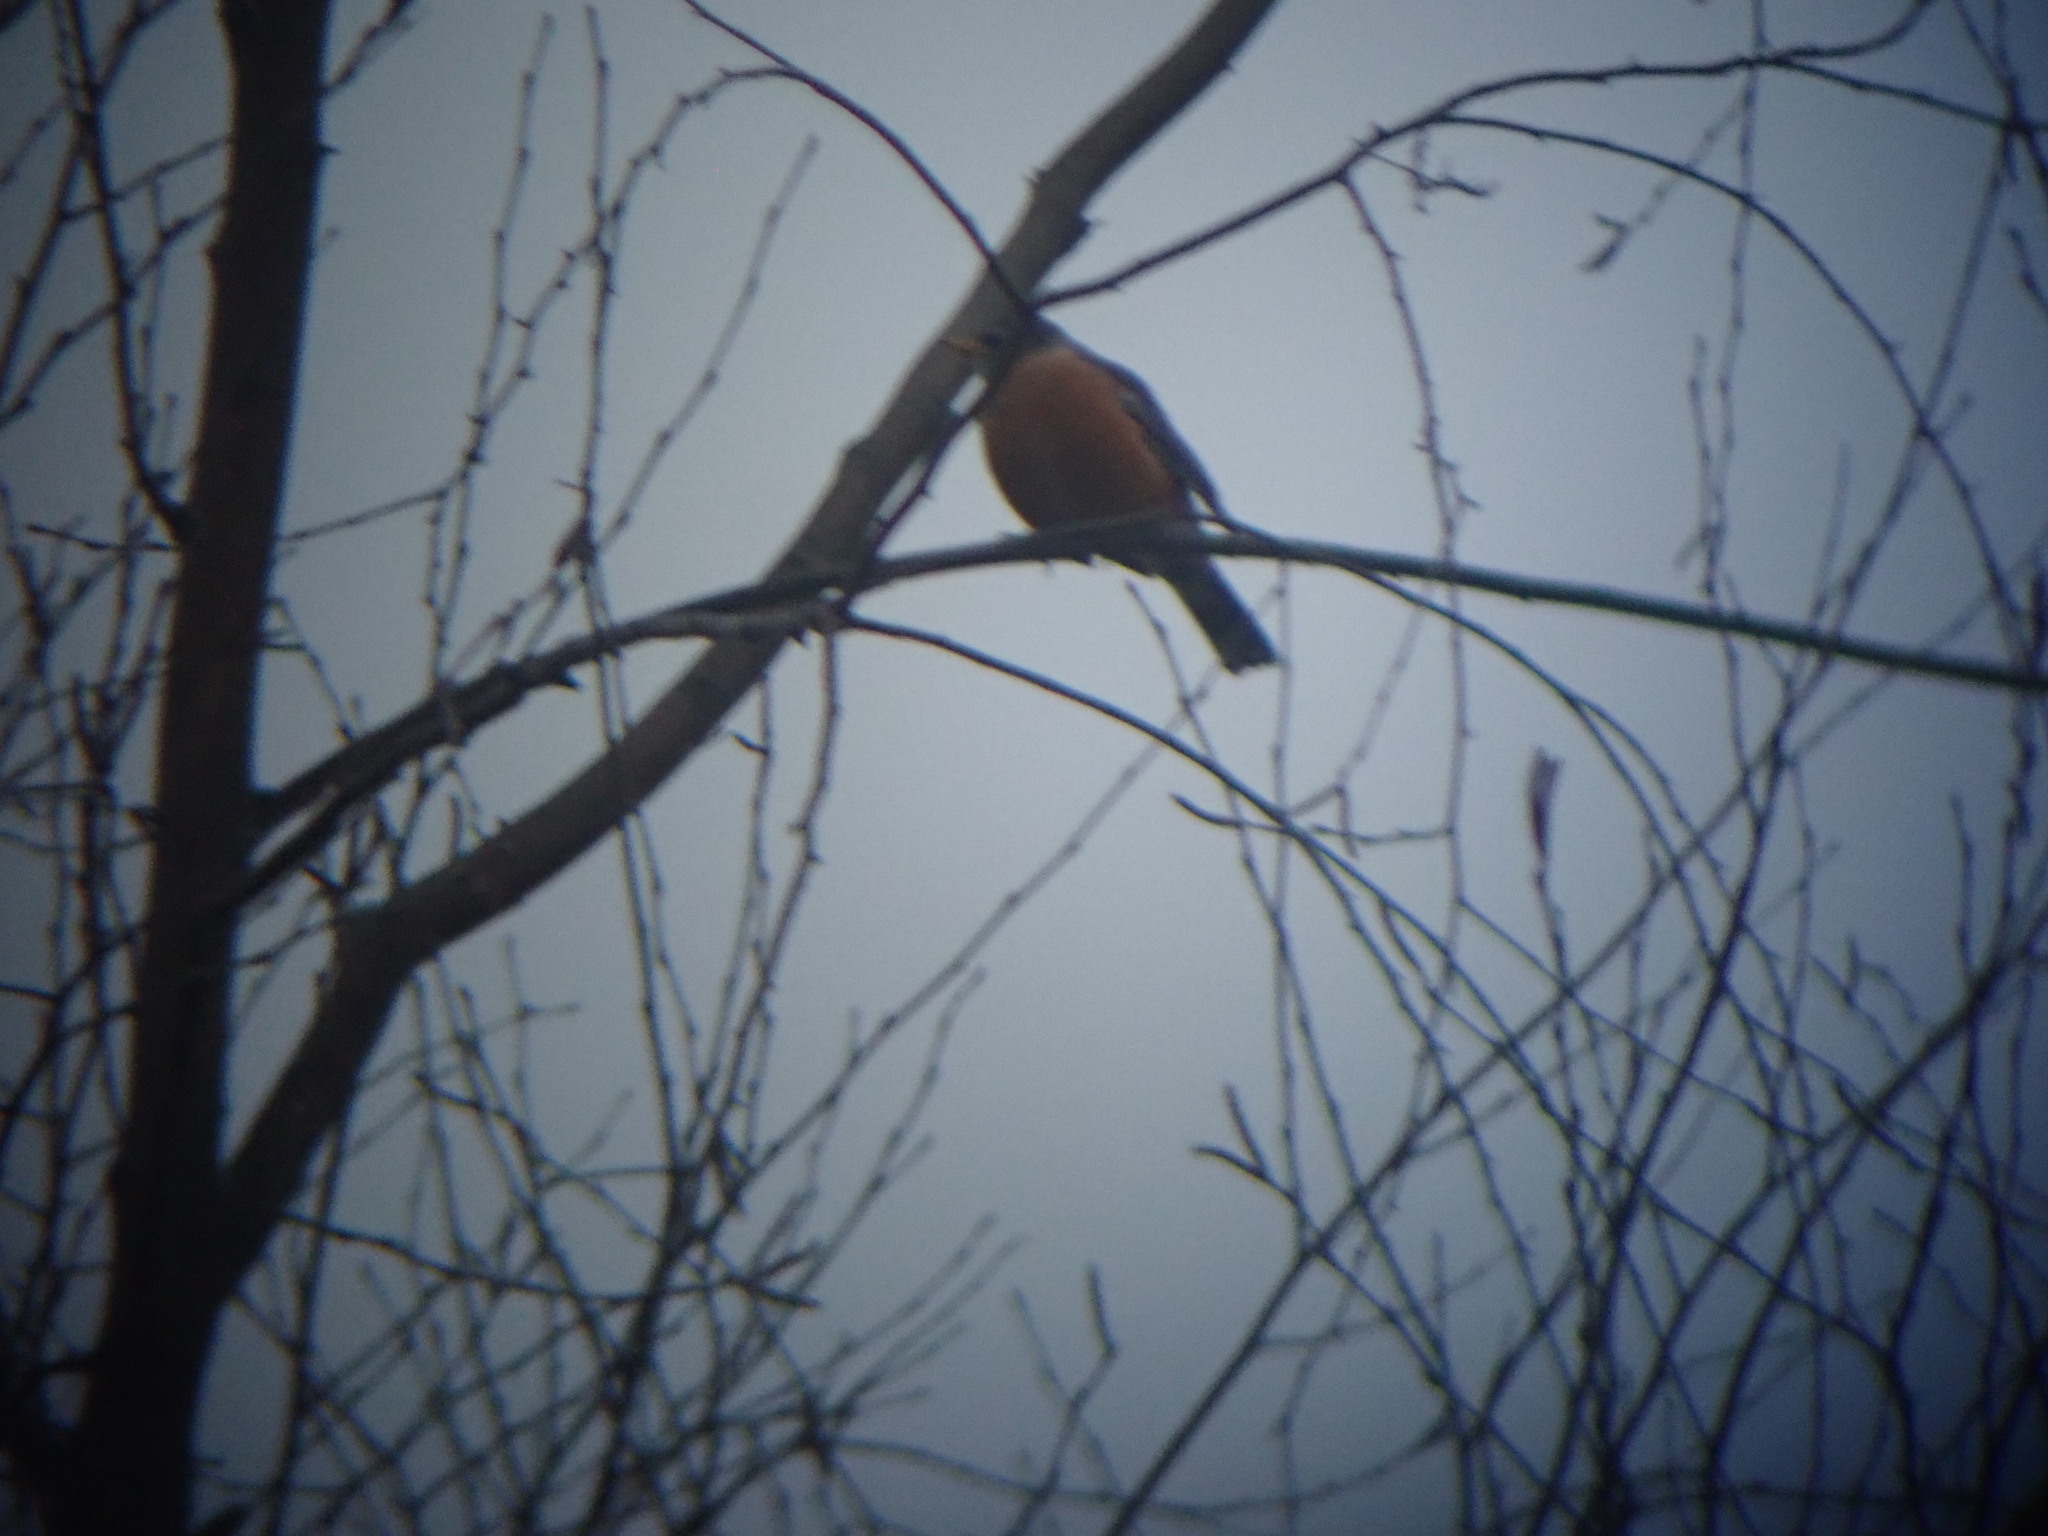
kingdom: Animalia
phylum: Chordata
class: Aves
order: Passeriformes
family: Turdidae
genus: Turdus
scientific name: Turdus migratorius
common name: American robin
